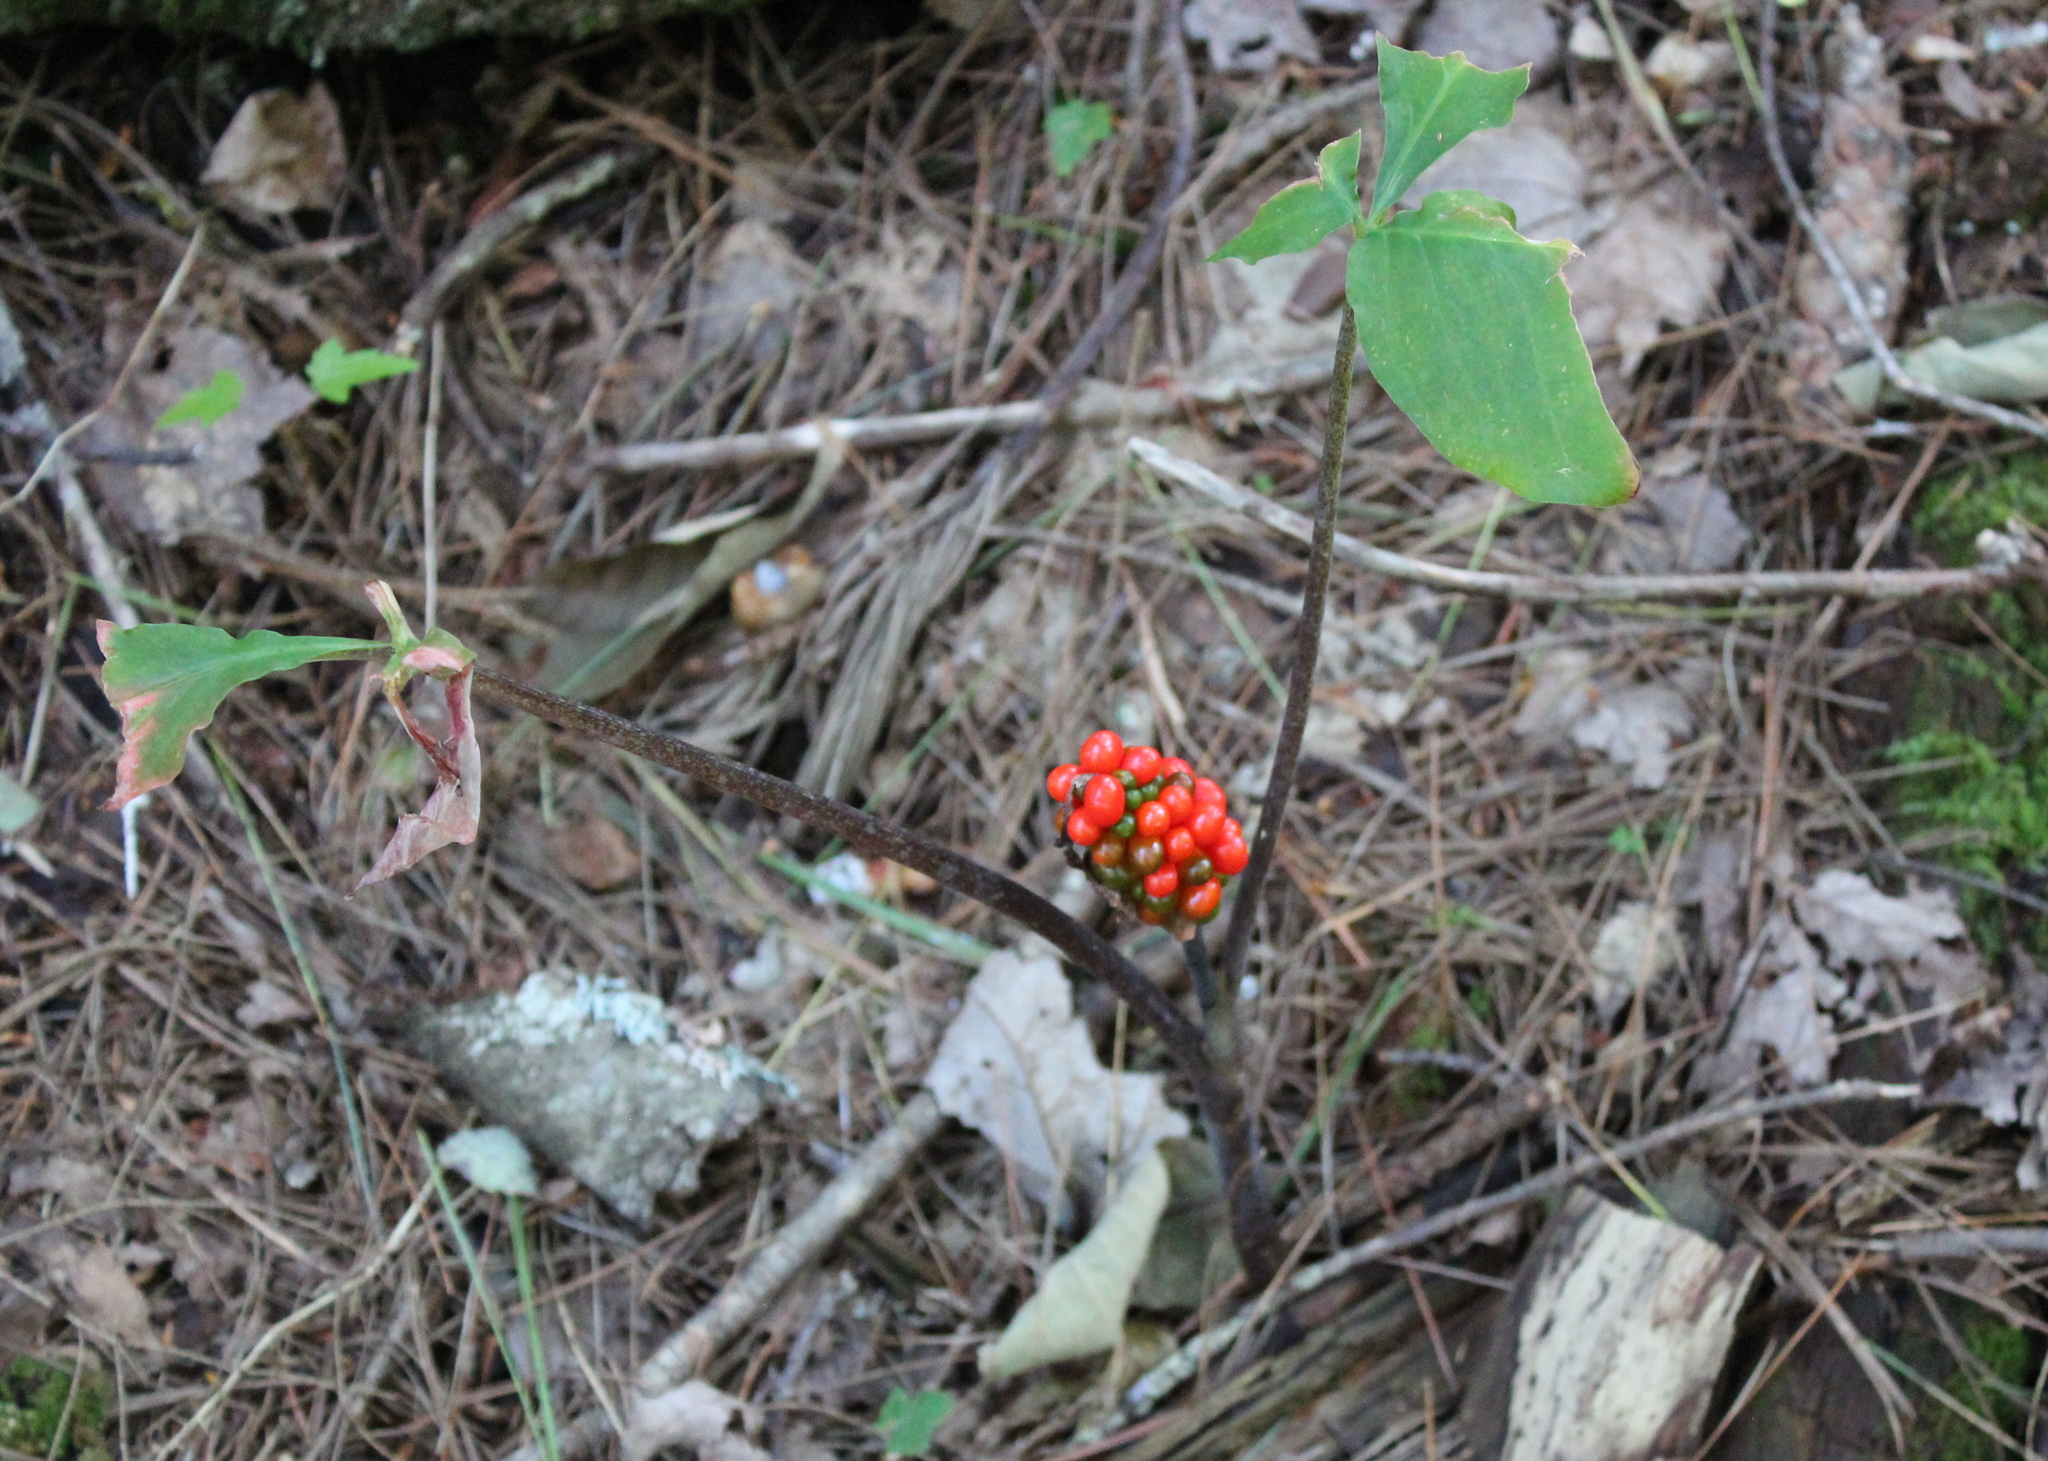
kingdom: Plantae
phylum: Tracheophyta
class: Liliopsida
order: Alismatales
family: Araceae
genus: Arisaema
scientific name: Arisaema triphyllum
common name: Jack-in-the-pulpit
